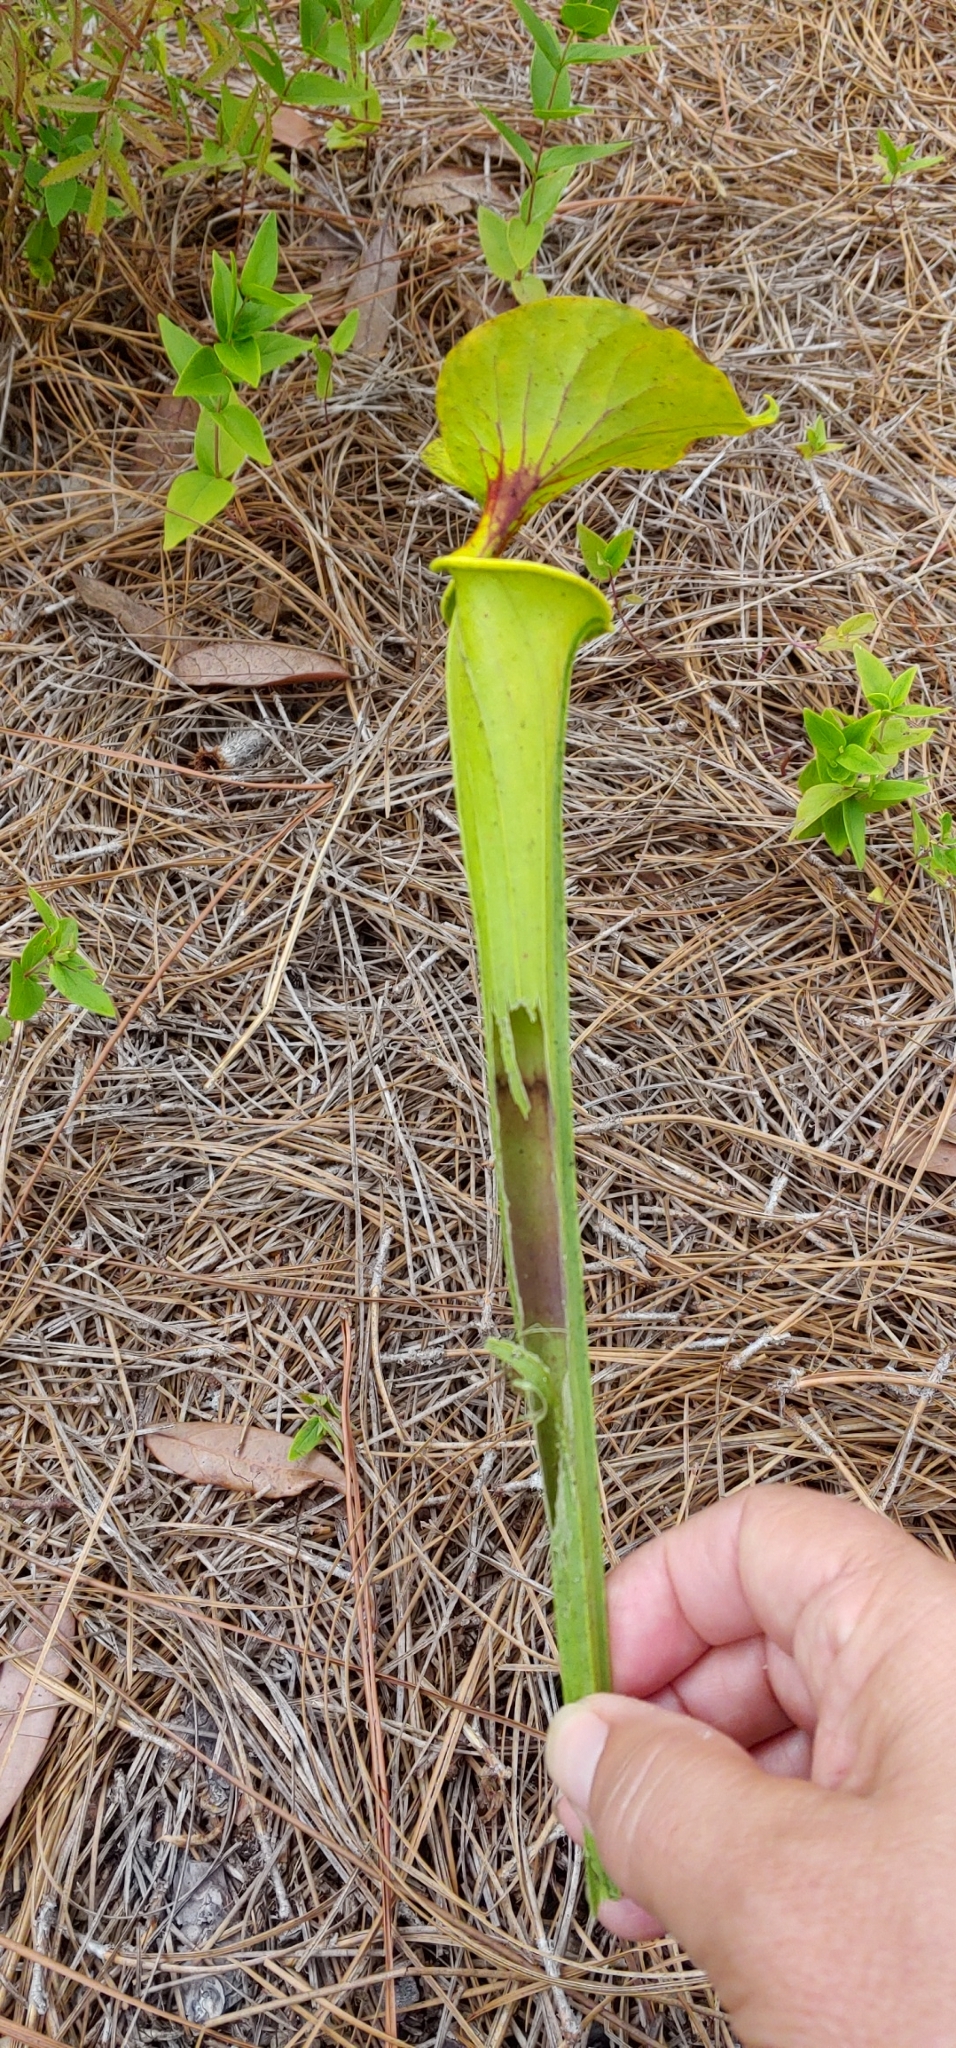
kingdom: Animalia
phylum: Arthropoda
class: Insecta
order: Lepidoptera
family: Noctuidae
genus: Exyra
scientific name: Exyra semicrocea
